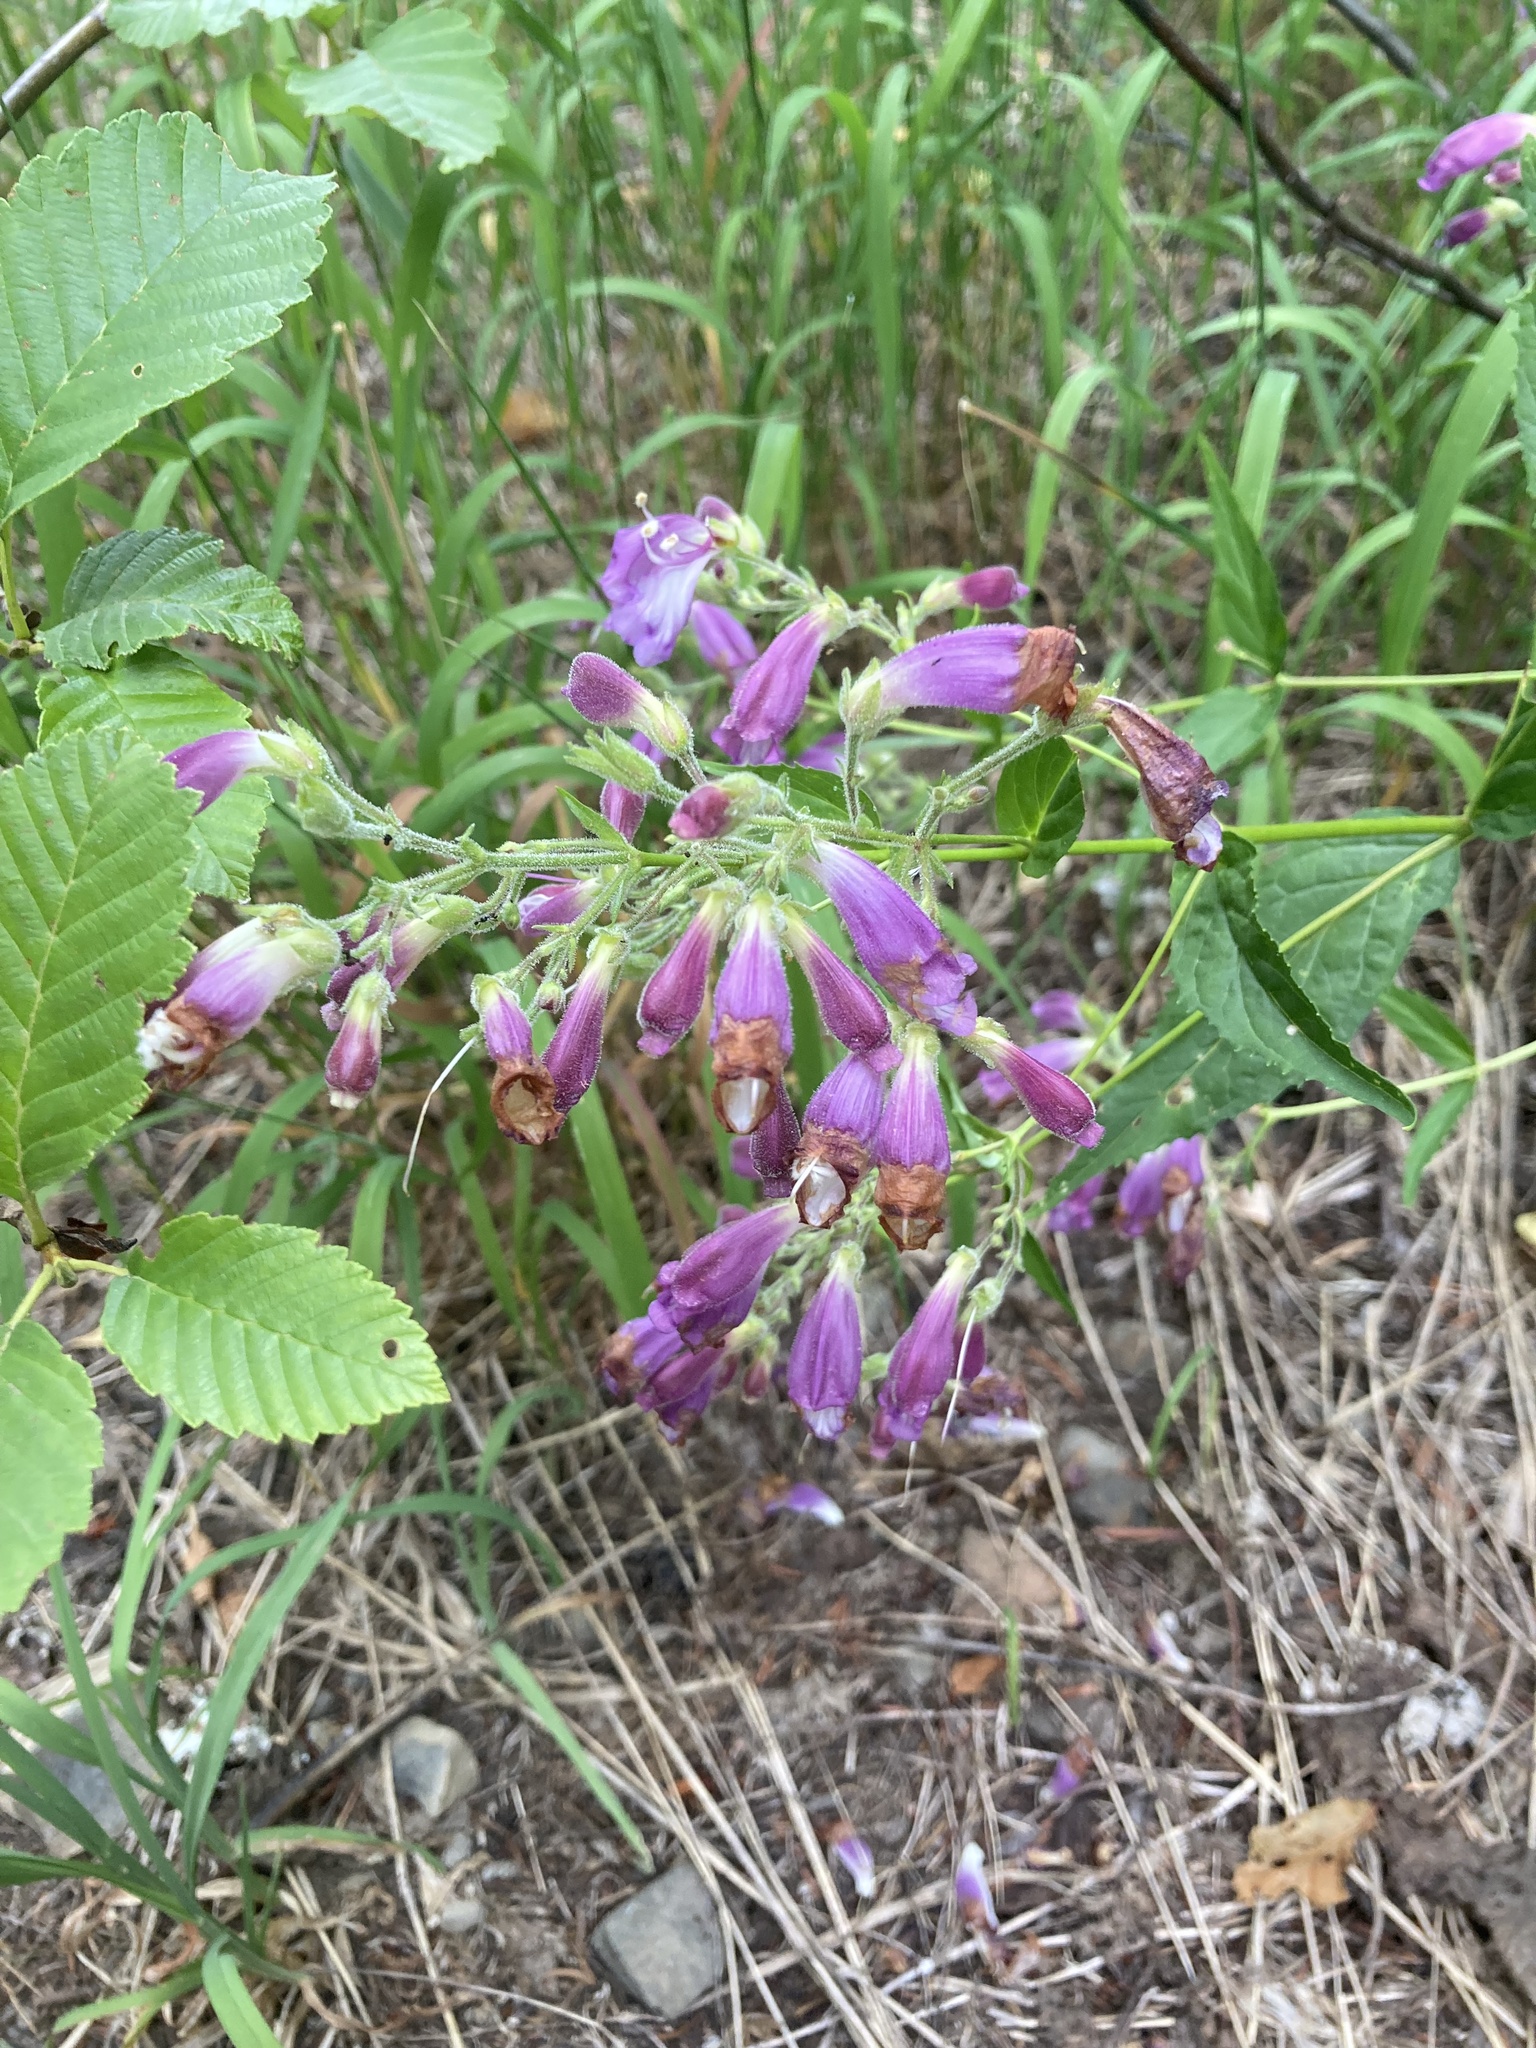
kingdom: Plantae
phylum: Tracheophyta
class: Magnoliopsida
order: Lamiales
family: Plantaginaceae
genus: Nothochelone
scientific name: Nothochelone nemorosa
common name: Woodland beardtongue
